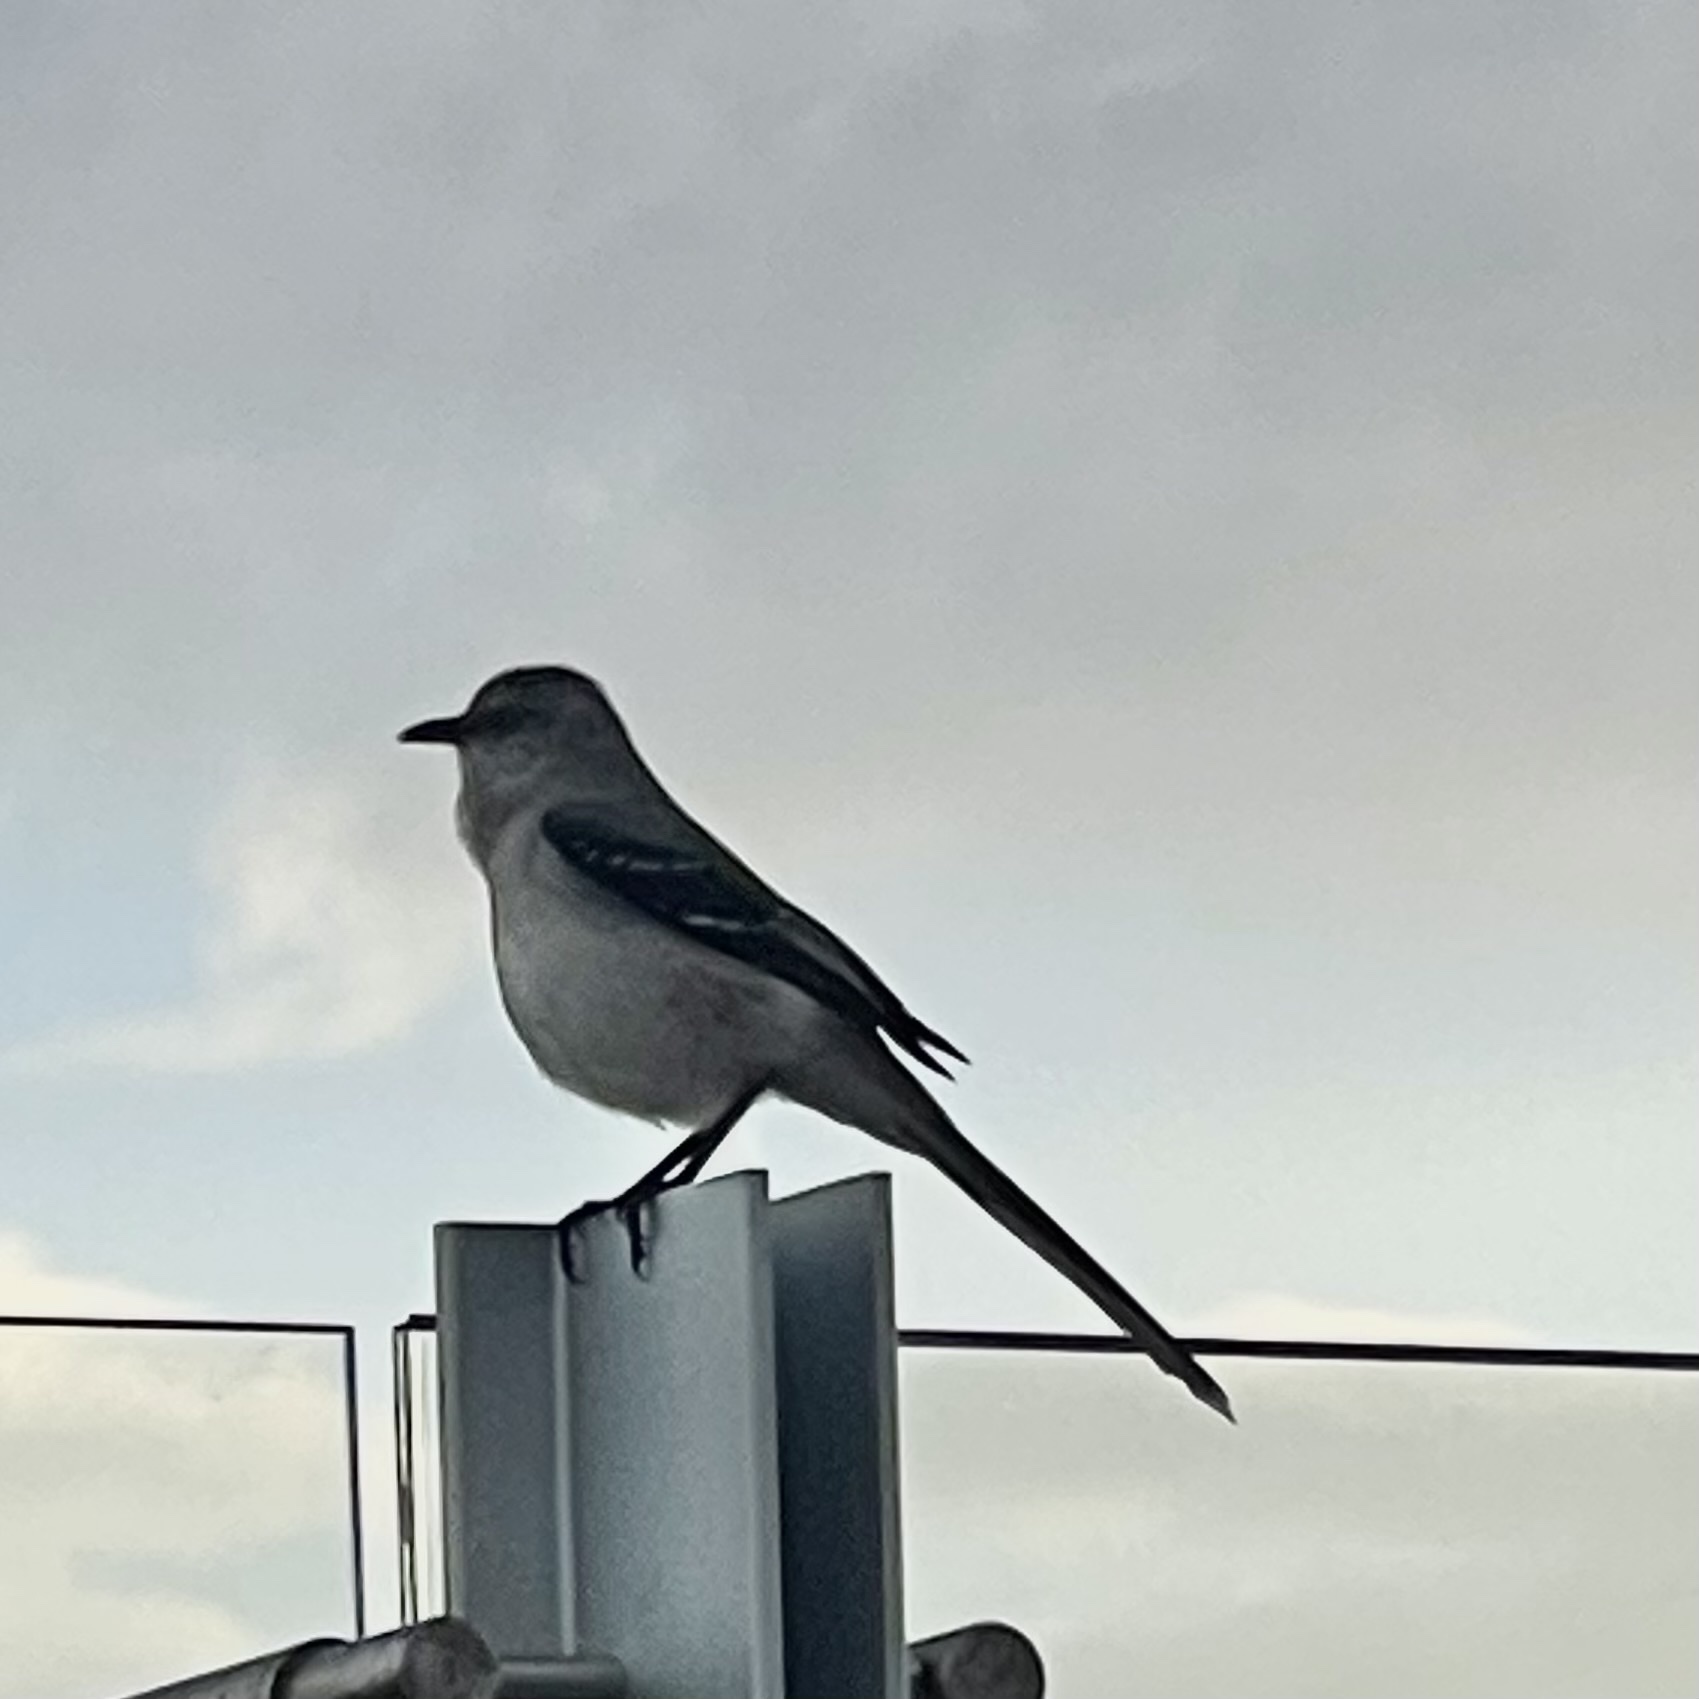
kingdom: Animalia
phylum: Chordata
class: Aves
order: Passeriformes
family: Mimidae
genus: Mimus
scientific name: Mimus gilvus
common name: Tropical mockingbird
